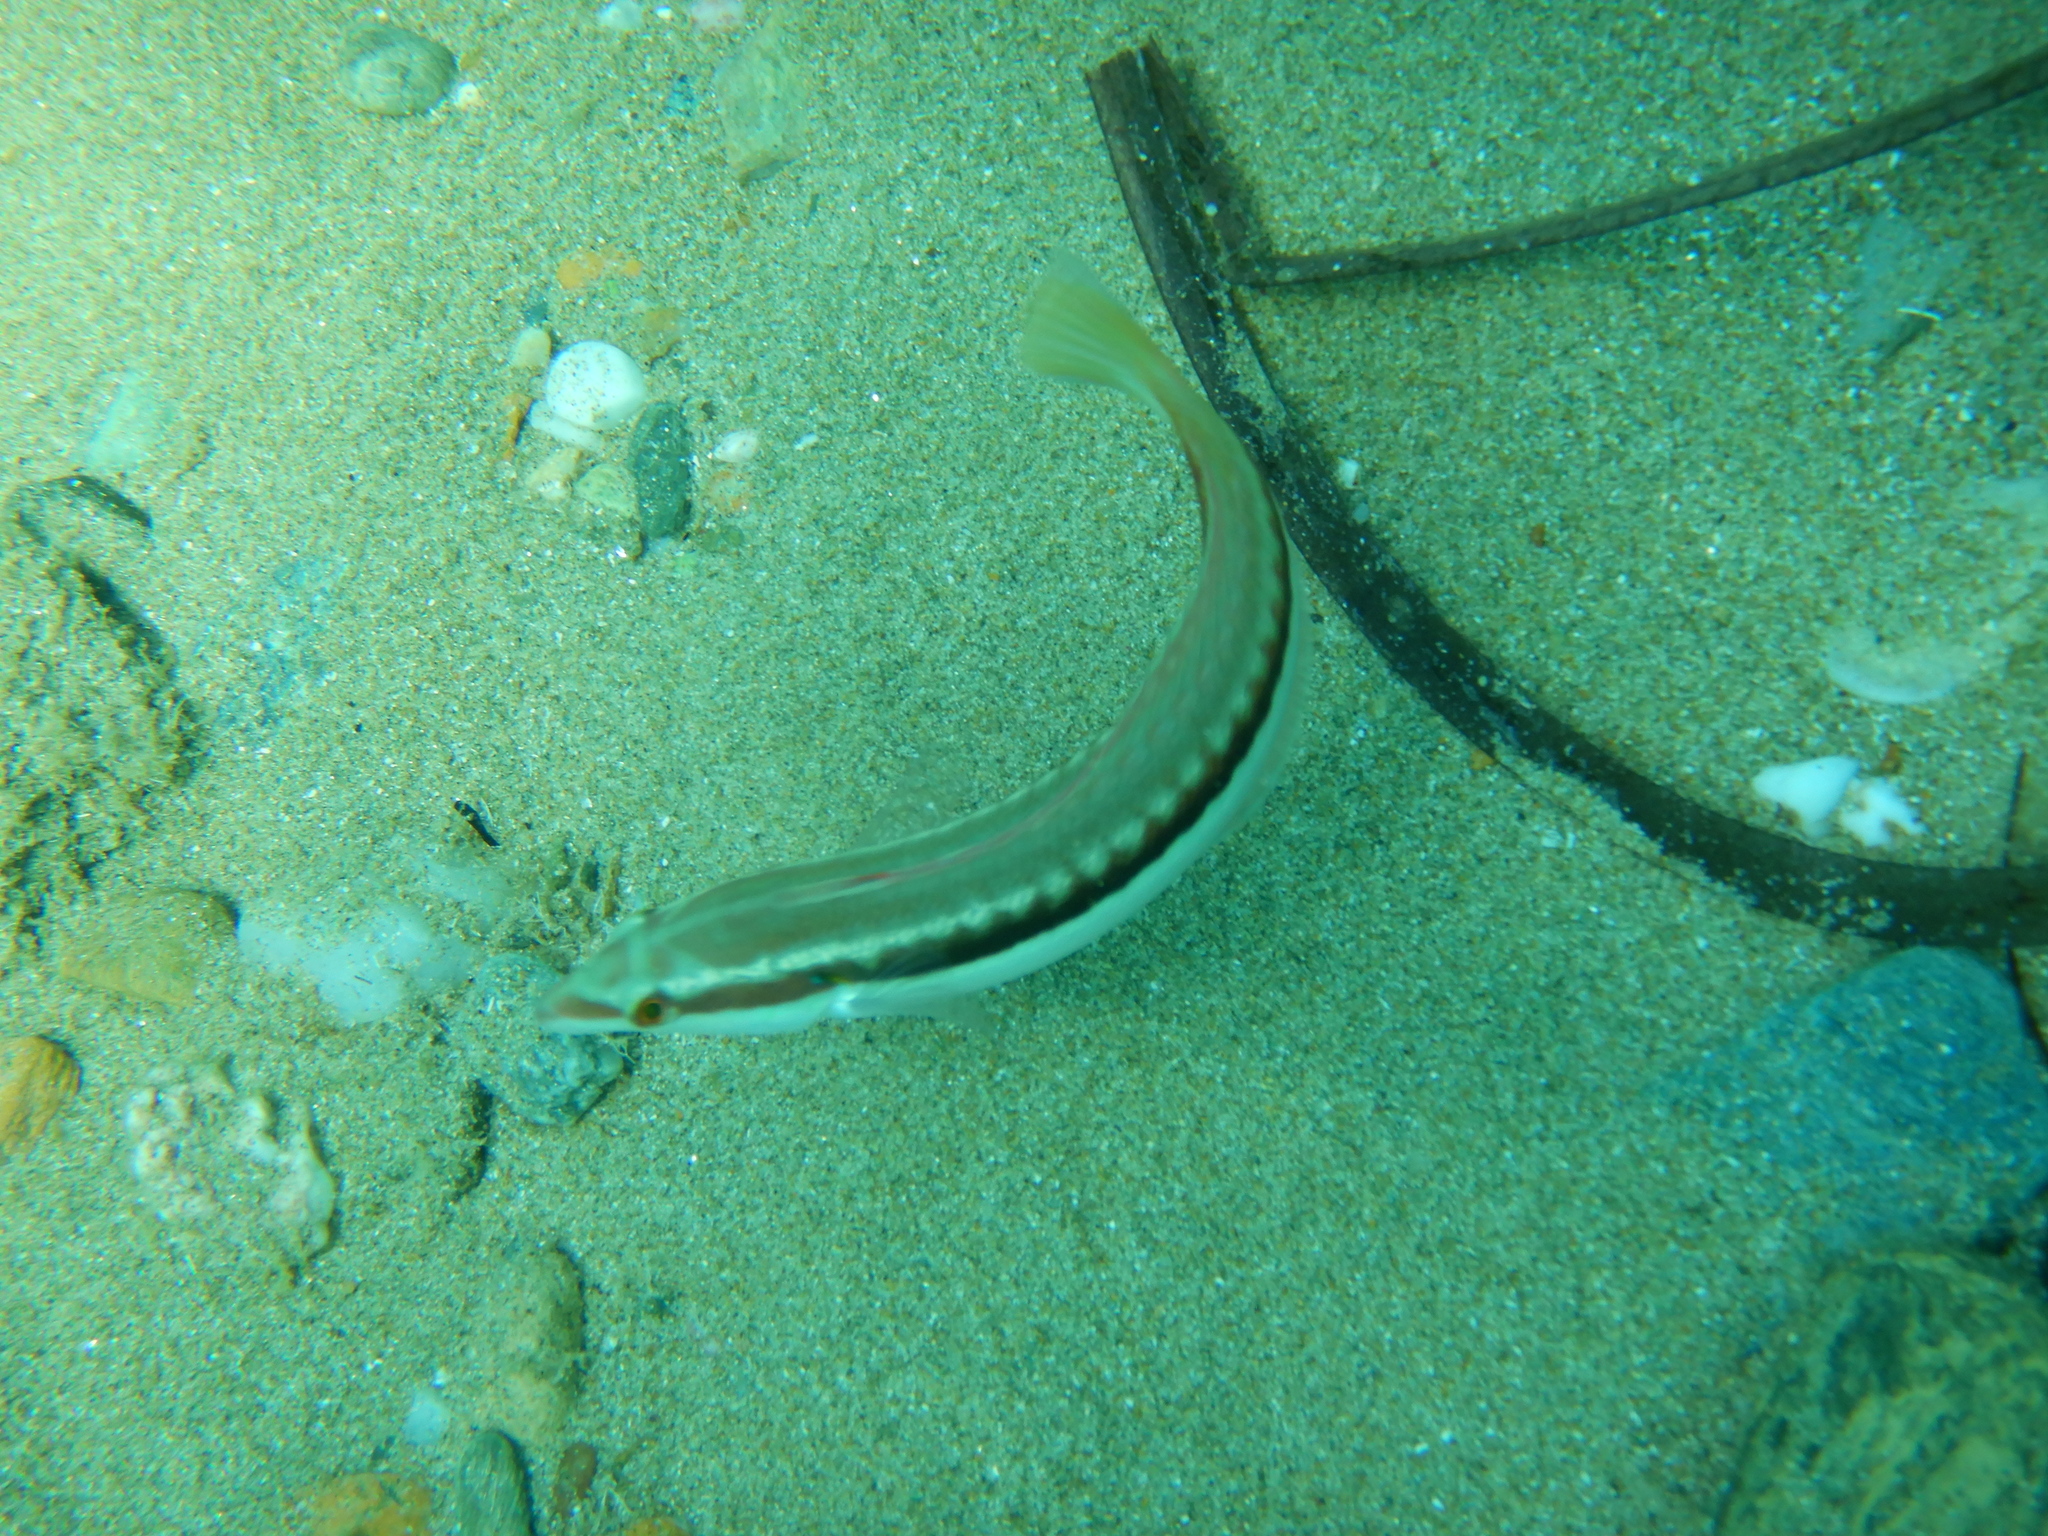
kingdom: Animalia
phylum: Chordata
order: Perciformes
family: Labridae
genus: Coris
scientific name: Coris julis
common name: Rainbow wrasse
